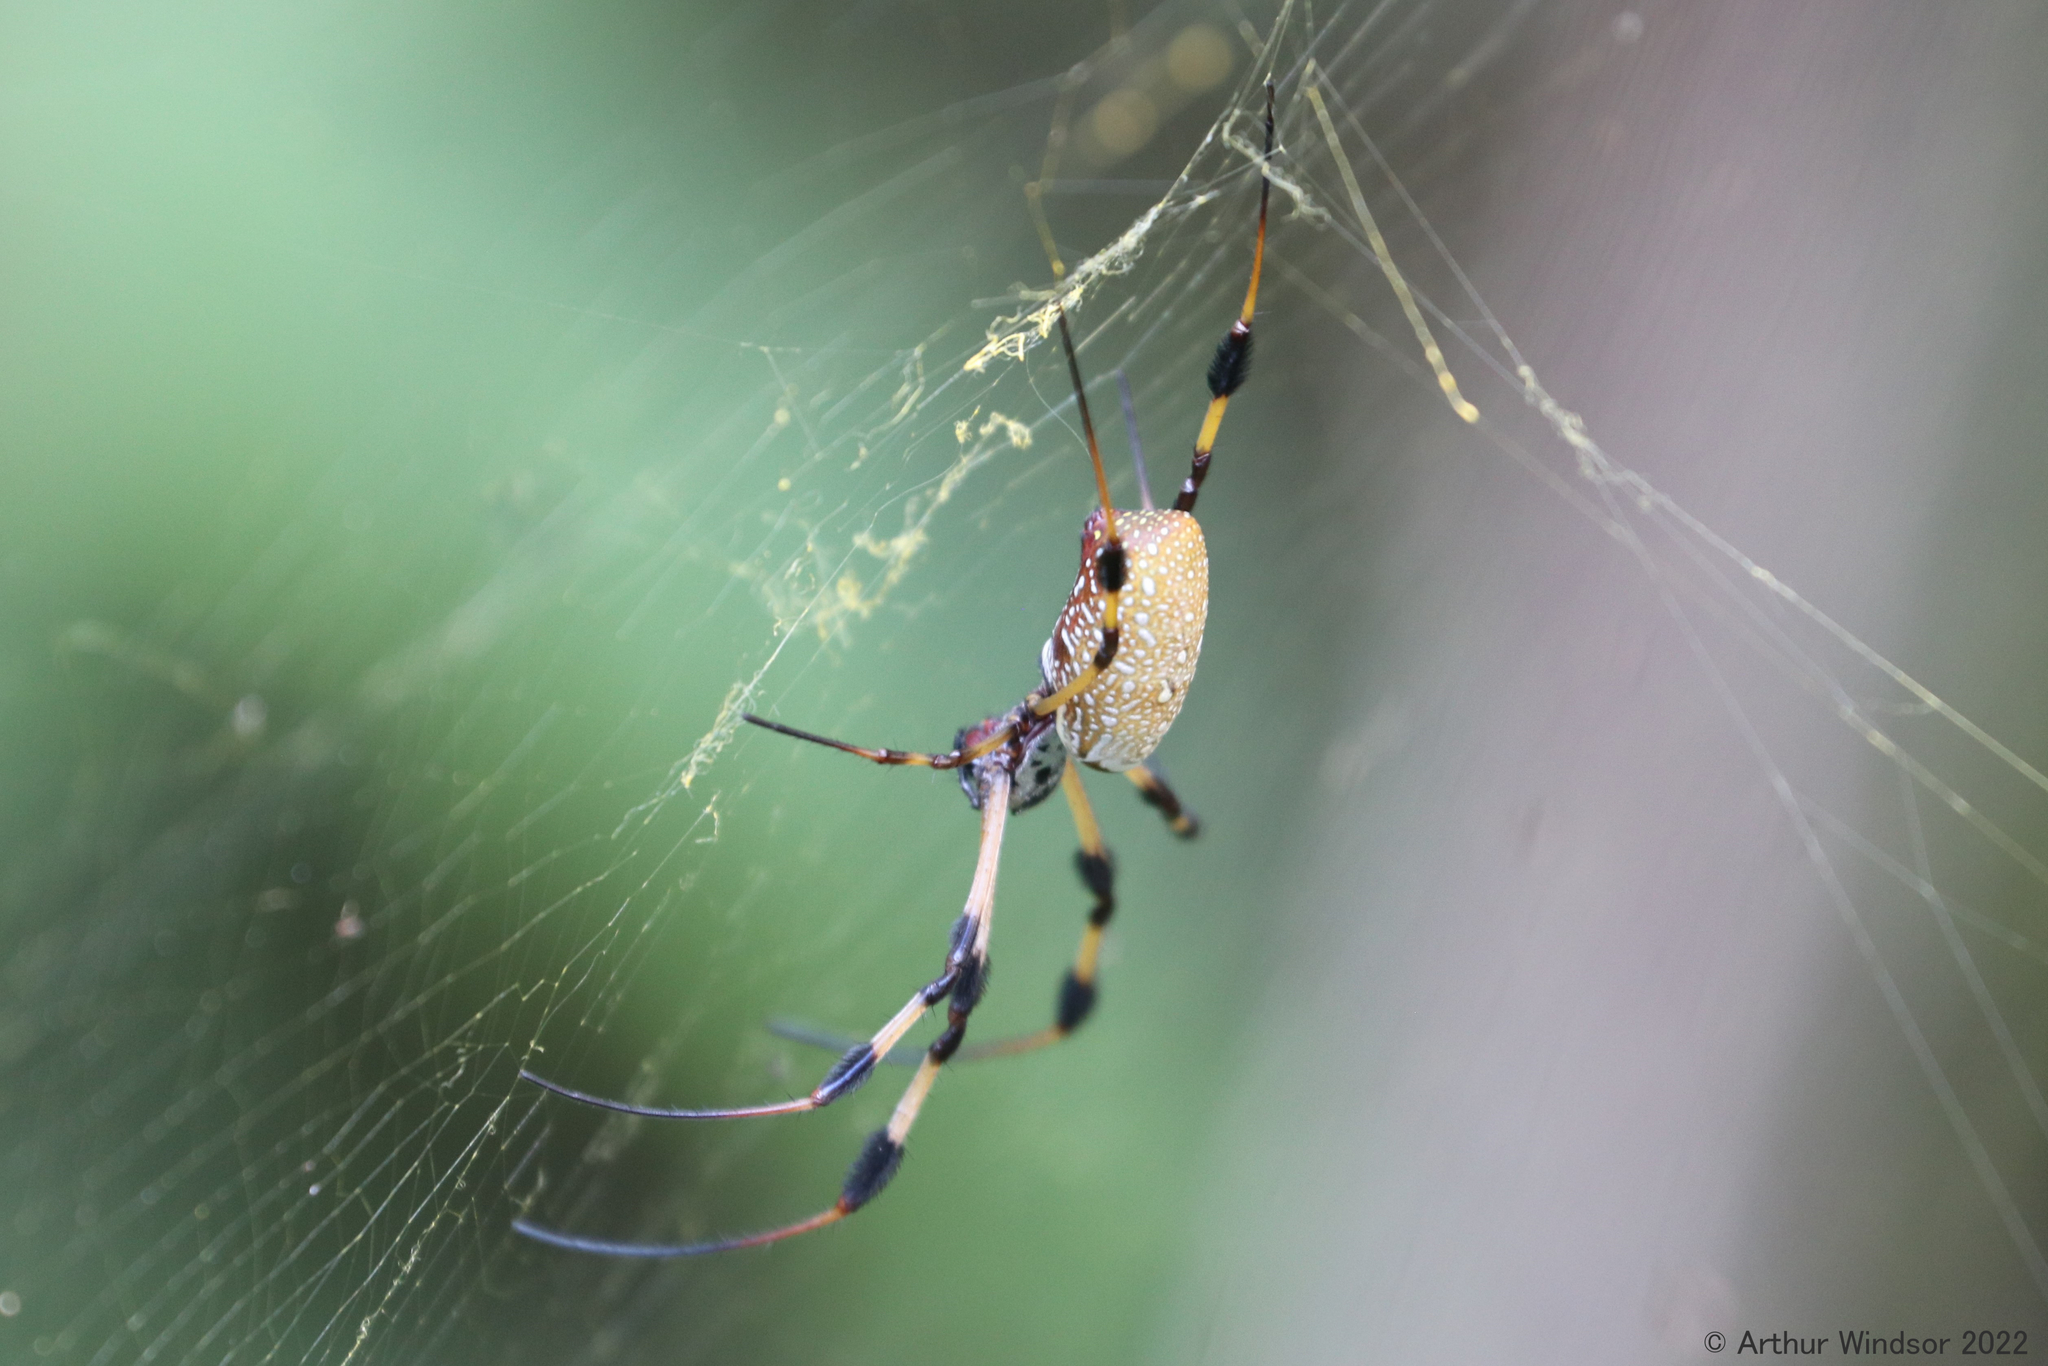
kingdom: Animalia
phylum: Arthropoda
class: Arachnida
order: Araneae
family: Araneidae
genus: Trichonephila
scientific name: Trichonephila clavipes
